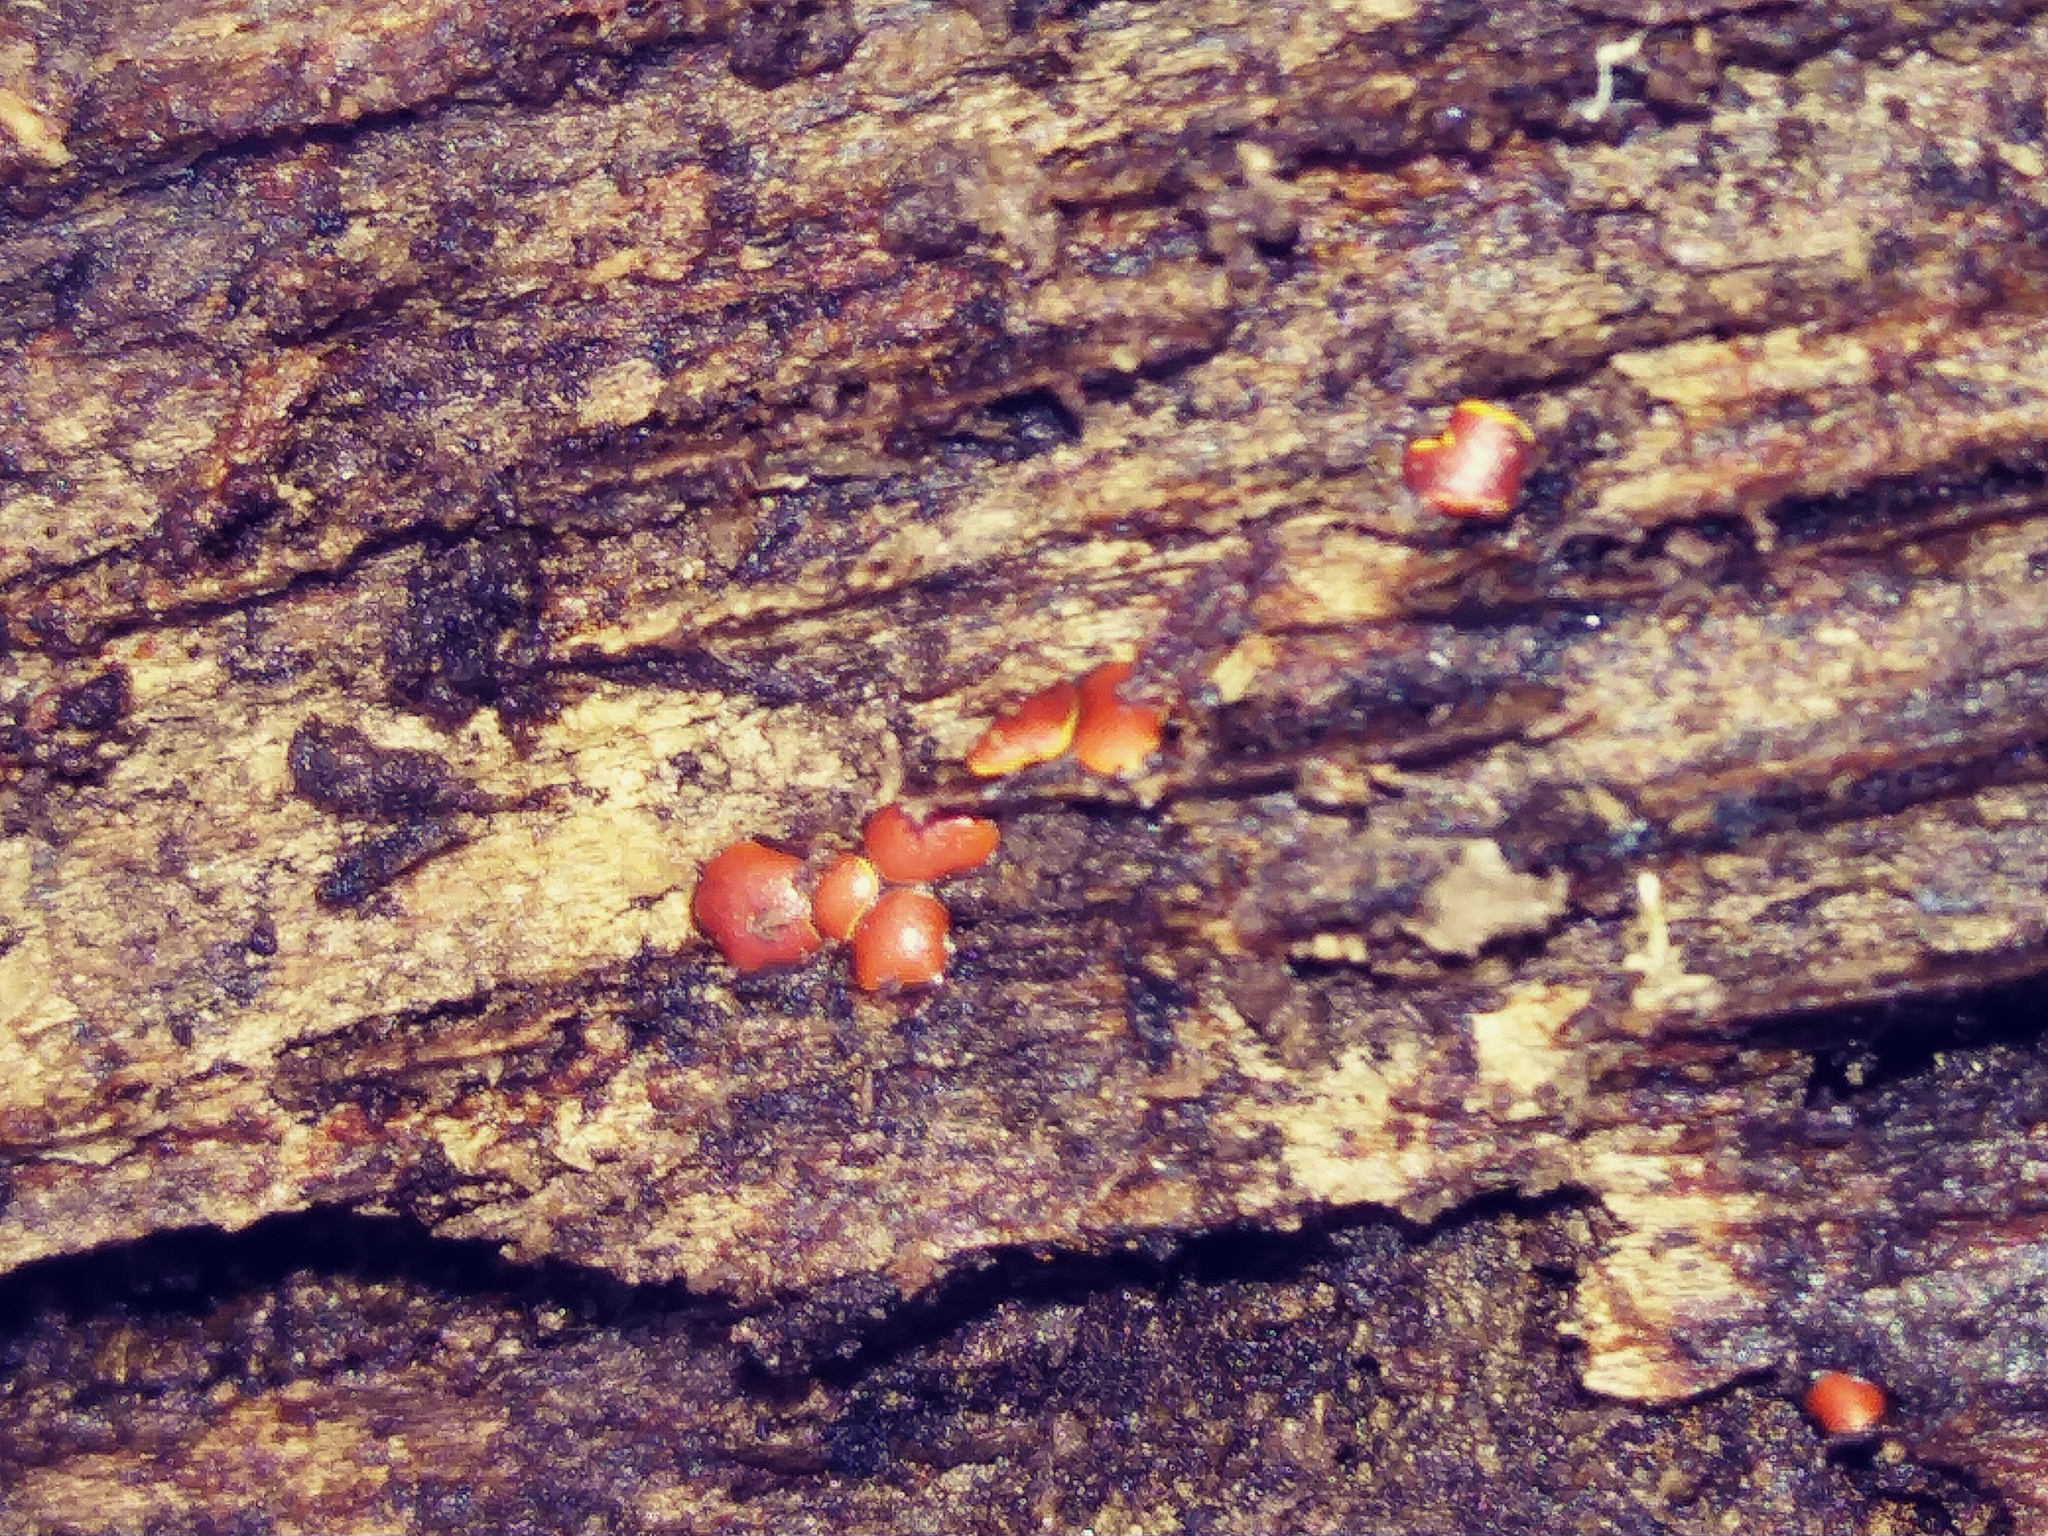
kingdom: Protozoa
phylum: Mycetozoa
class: Myxomycetes
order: Trichiales
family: Trichiaceae
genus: Perichaena
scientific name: Perichaena depressa
